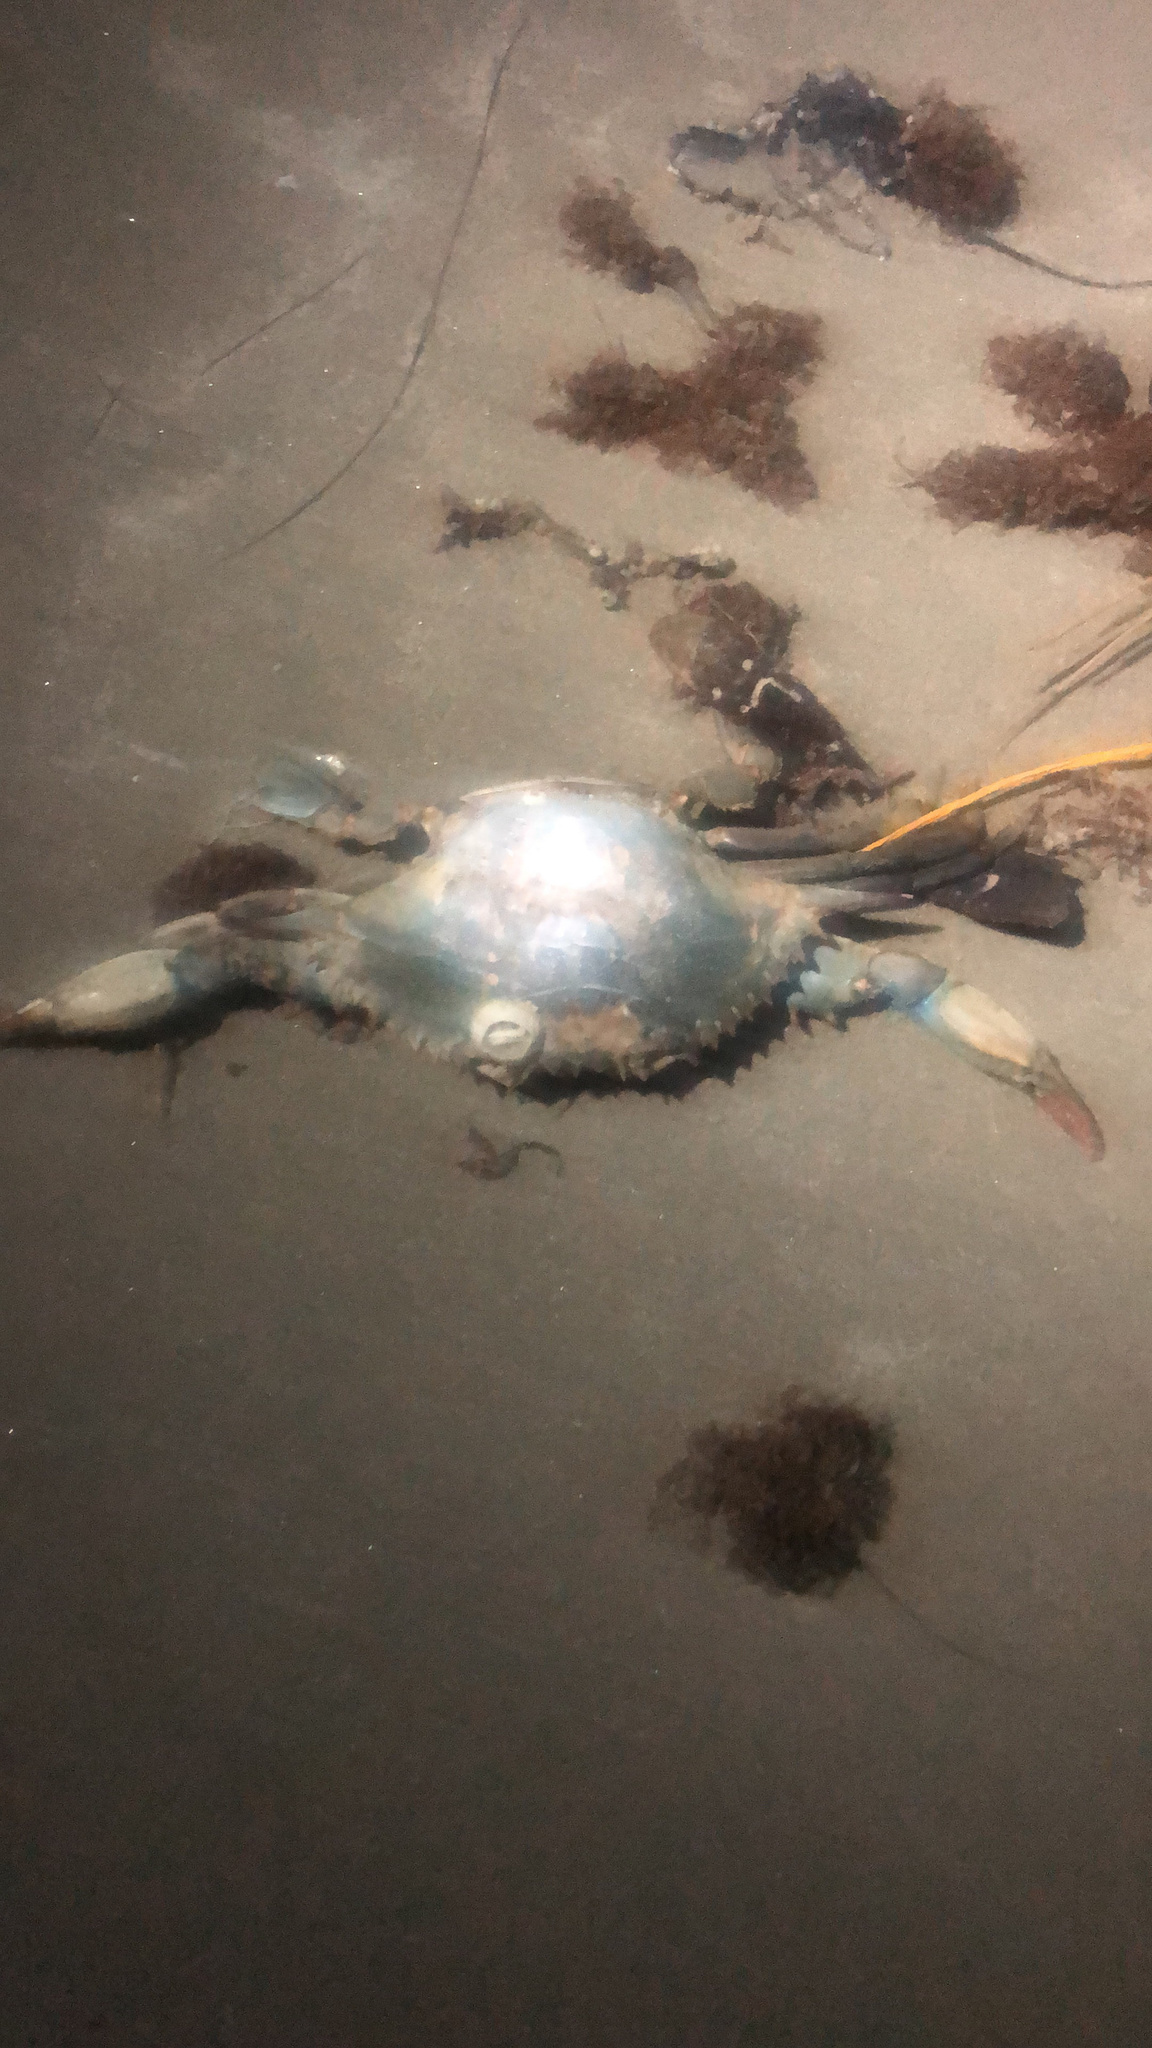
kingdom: Animalia
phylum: Arthropoda
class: Malacostraca
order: Decapoda
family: Portunidae
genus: Callinectes
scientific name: Callinectes sapidus
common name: Blue crab
